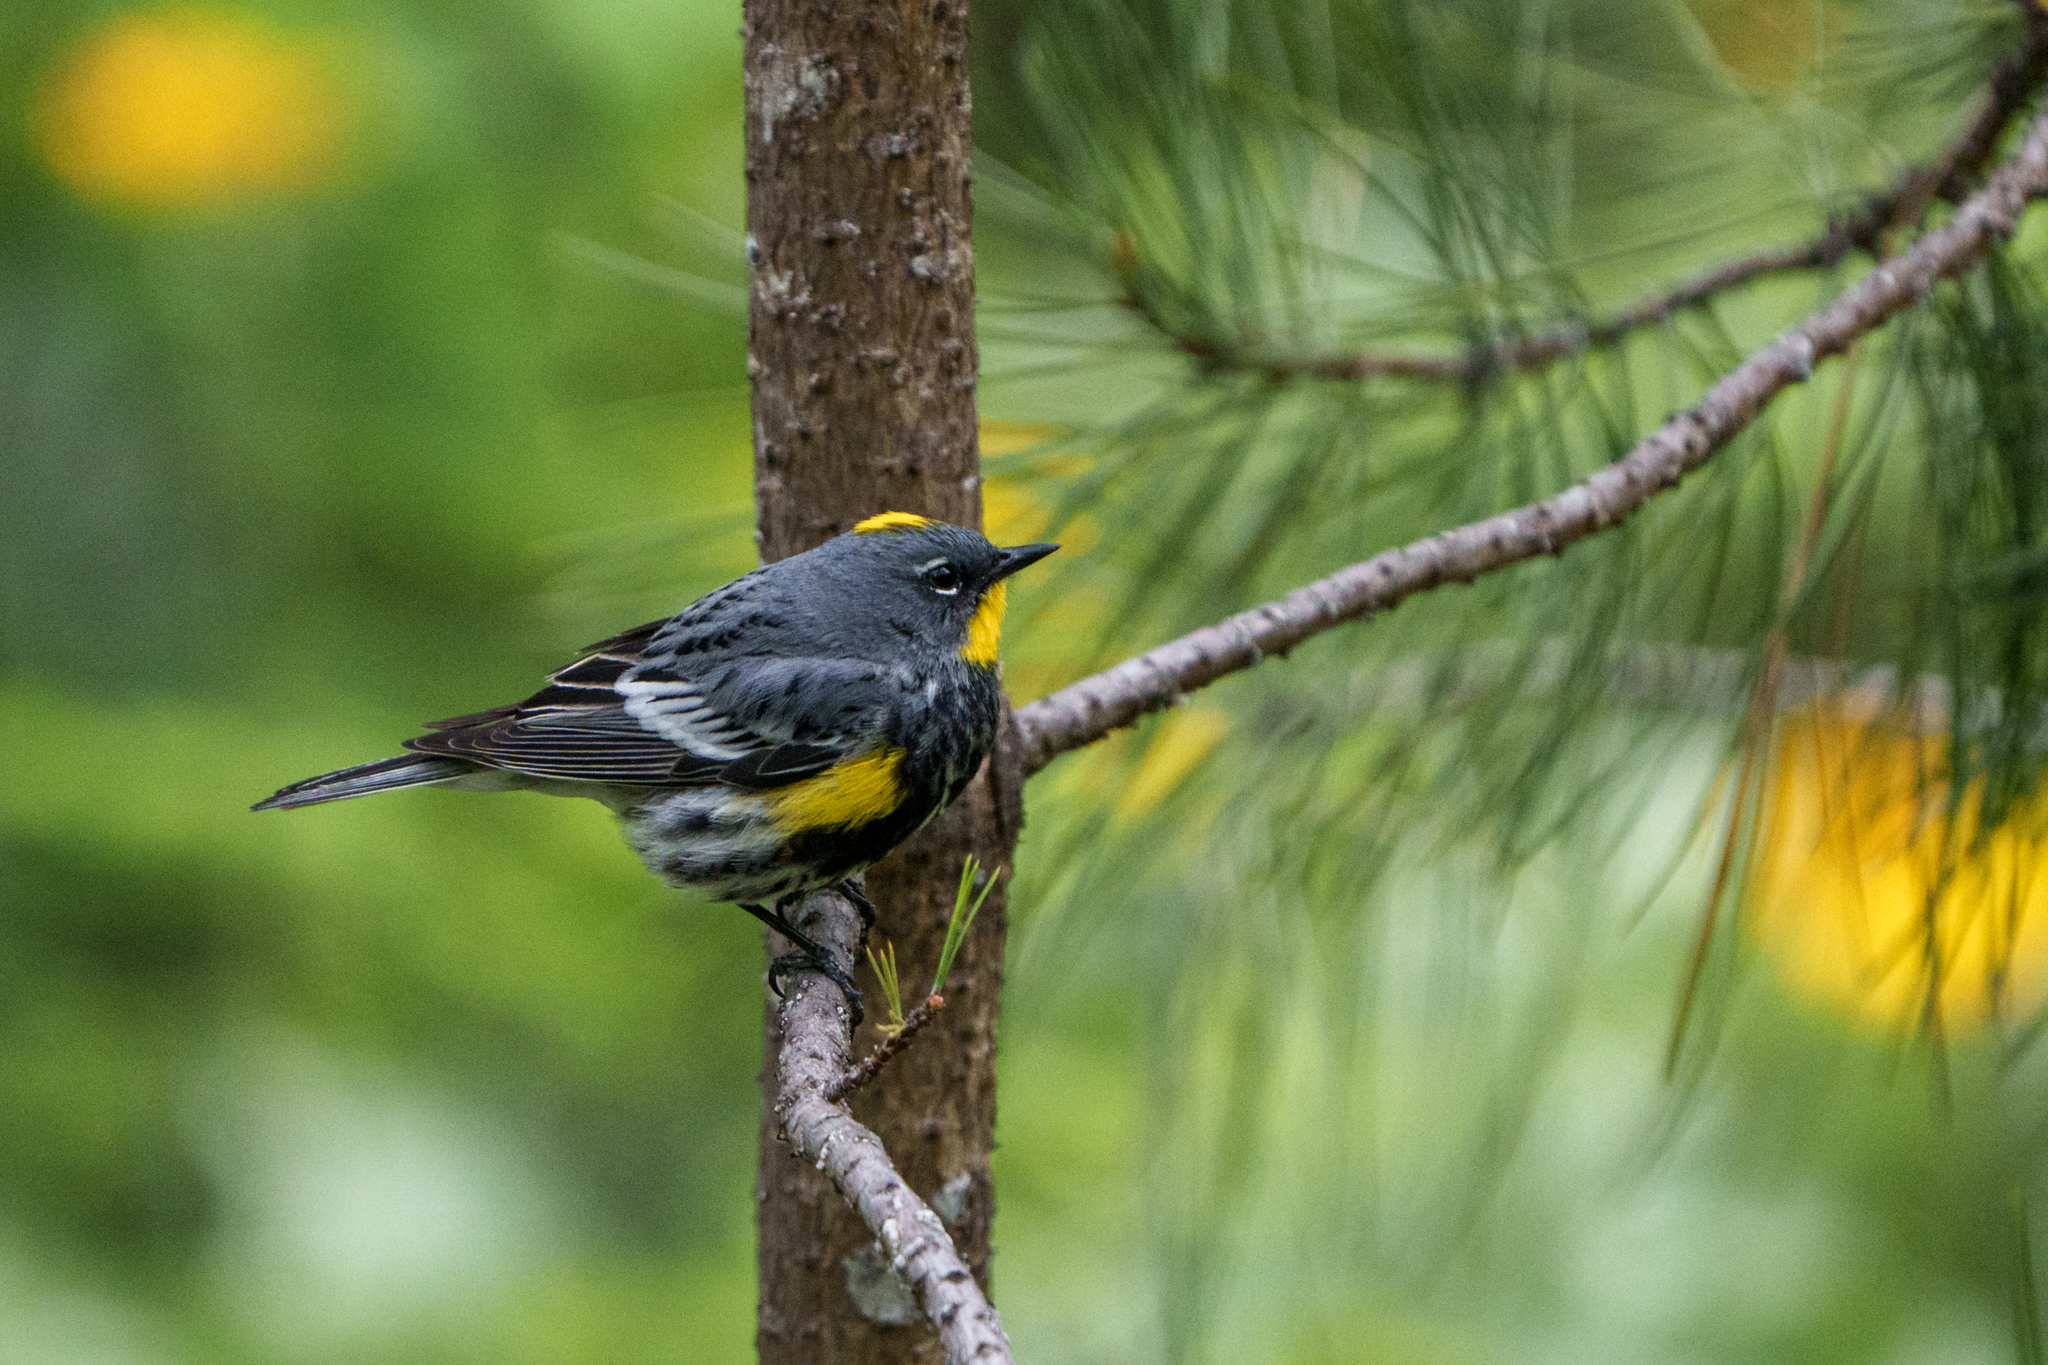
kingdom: Animalia
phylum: Chordata
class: Aves
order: Passeriformes
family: Parulidae
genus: Setophaga
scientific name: Setophaga auduboni
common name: Audubon's warbler
